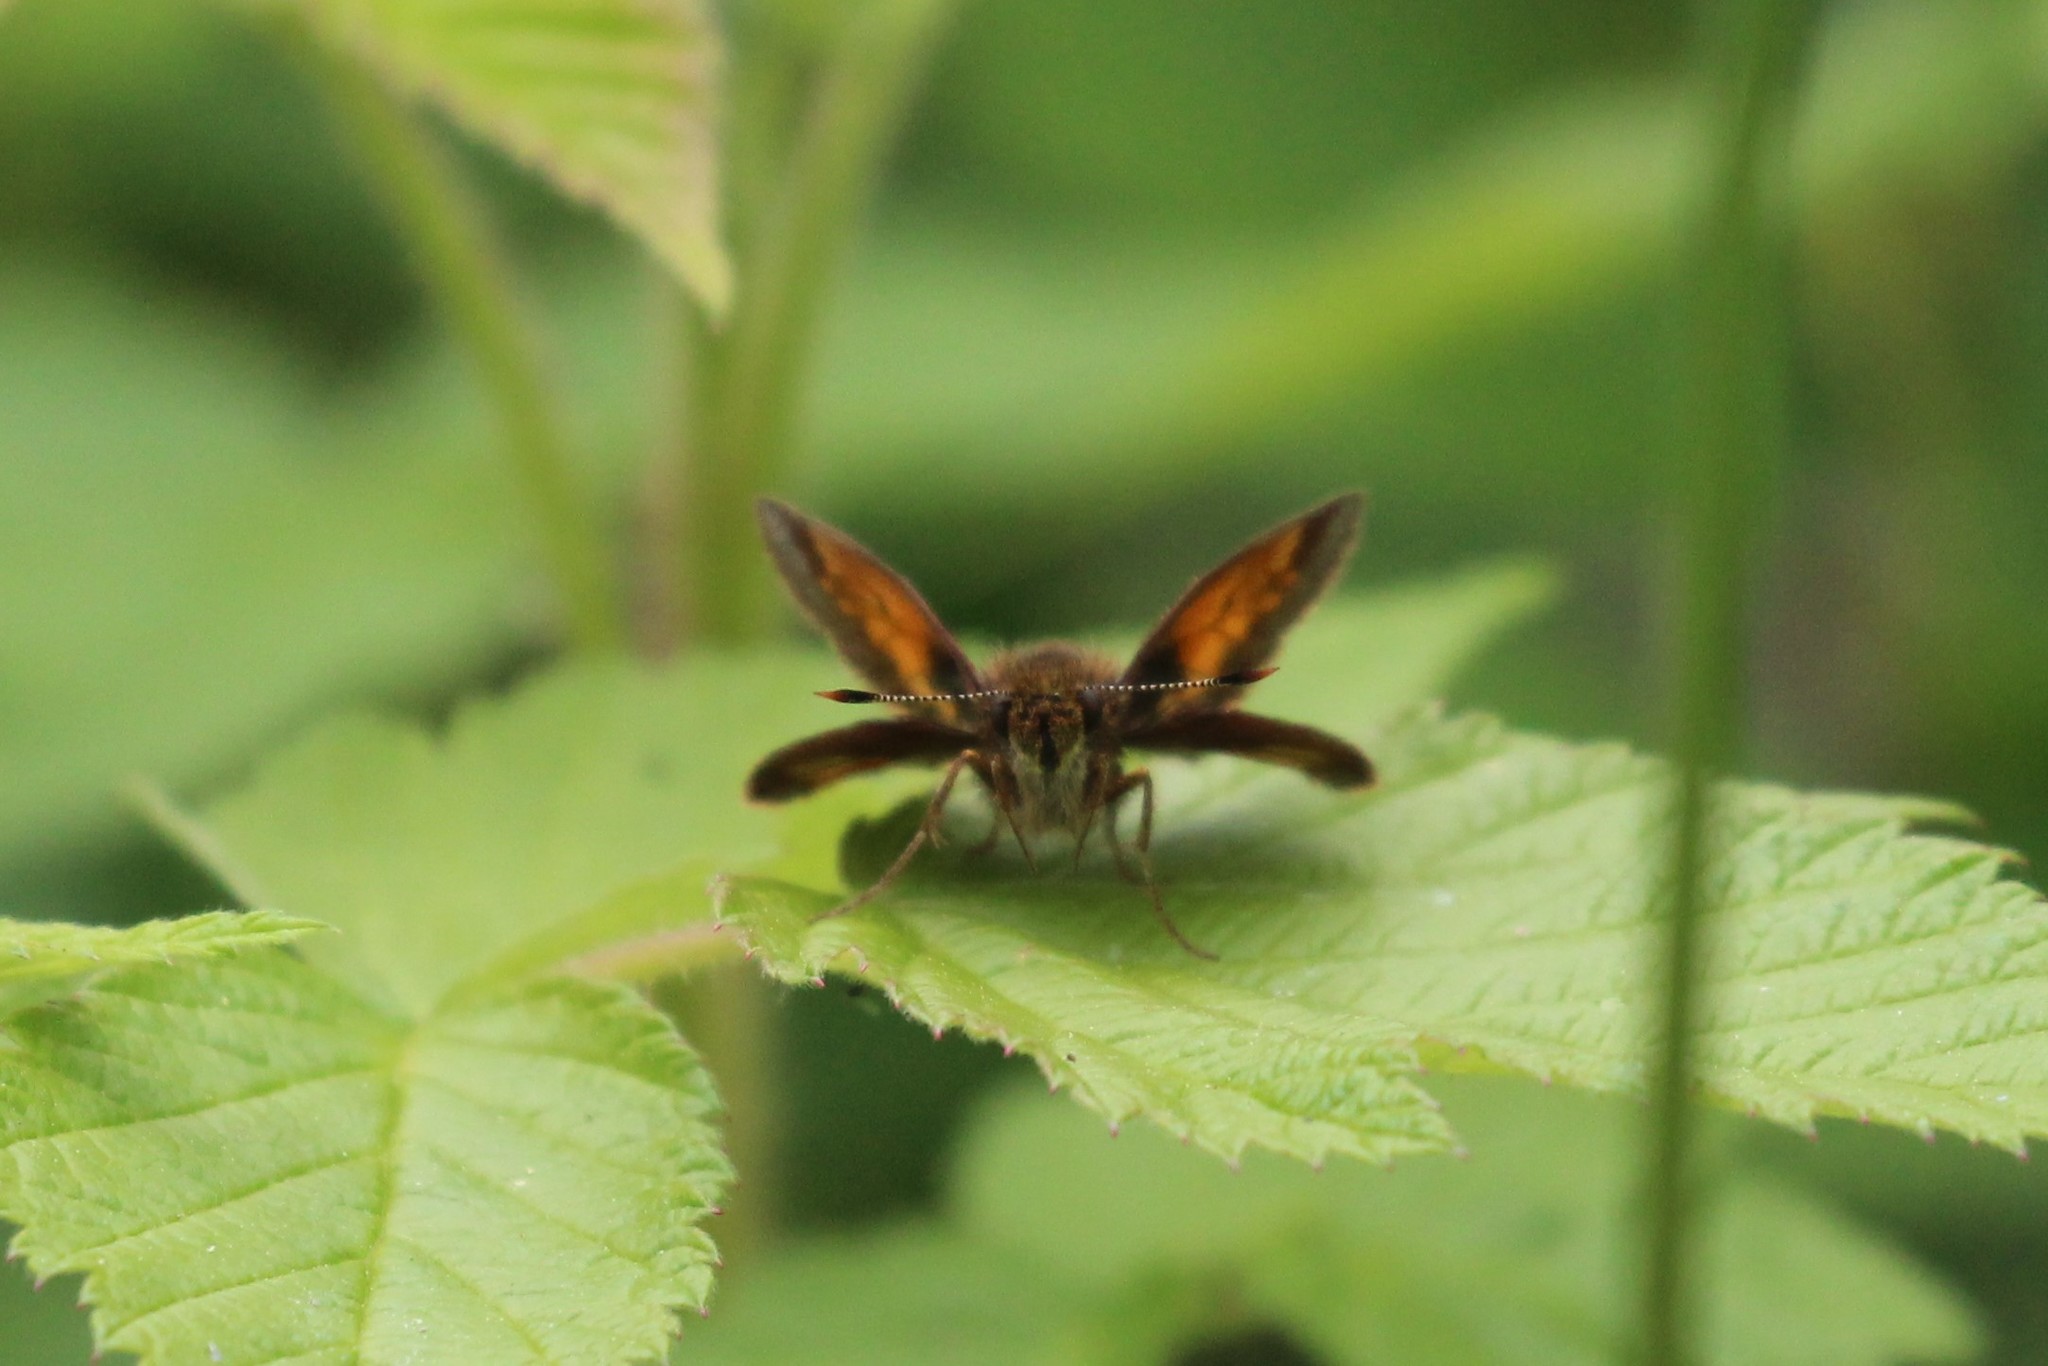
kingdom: Animalia
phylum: Arthropoda
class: Insecta
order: Lepidoptera
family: Hesperiidae
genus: Lon
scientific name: Lon hobomok
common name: Hobomok skipper
